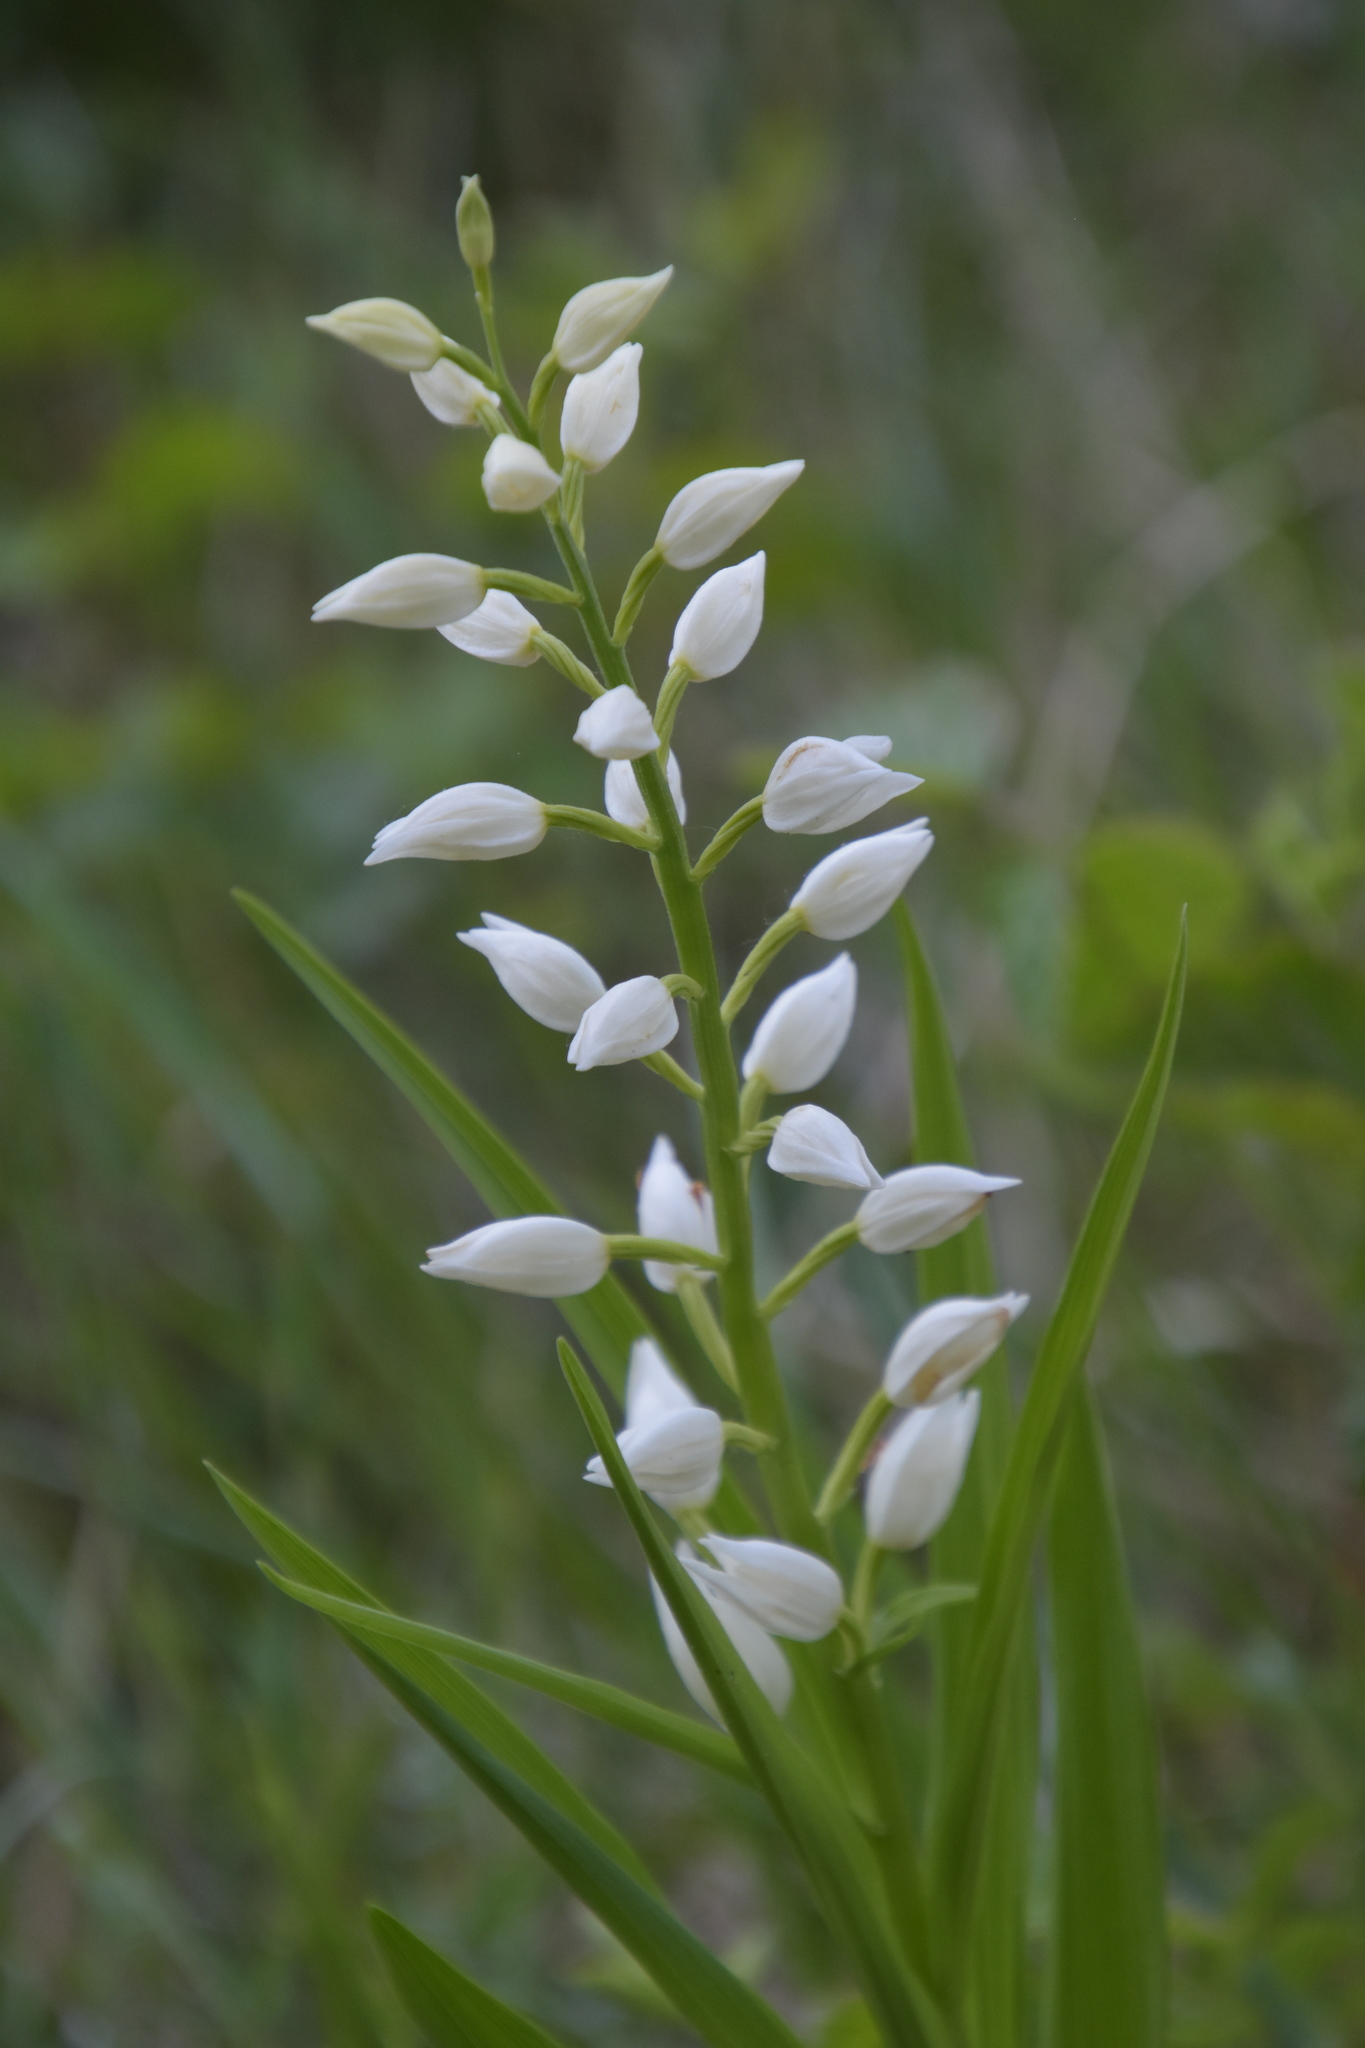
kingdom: Plantae
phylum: Tracheophyta
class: Liliopsida
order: Asparagales
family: Orchidaceae
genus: Cephalanthera
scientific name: Cephalanthera longifolia
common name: Narrow-leaved helleborine
